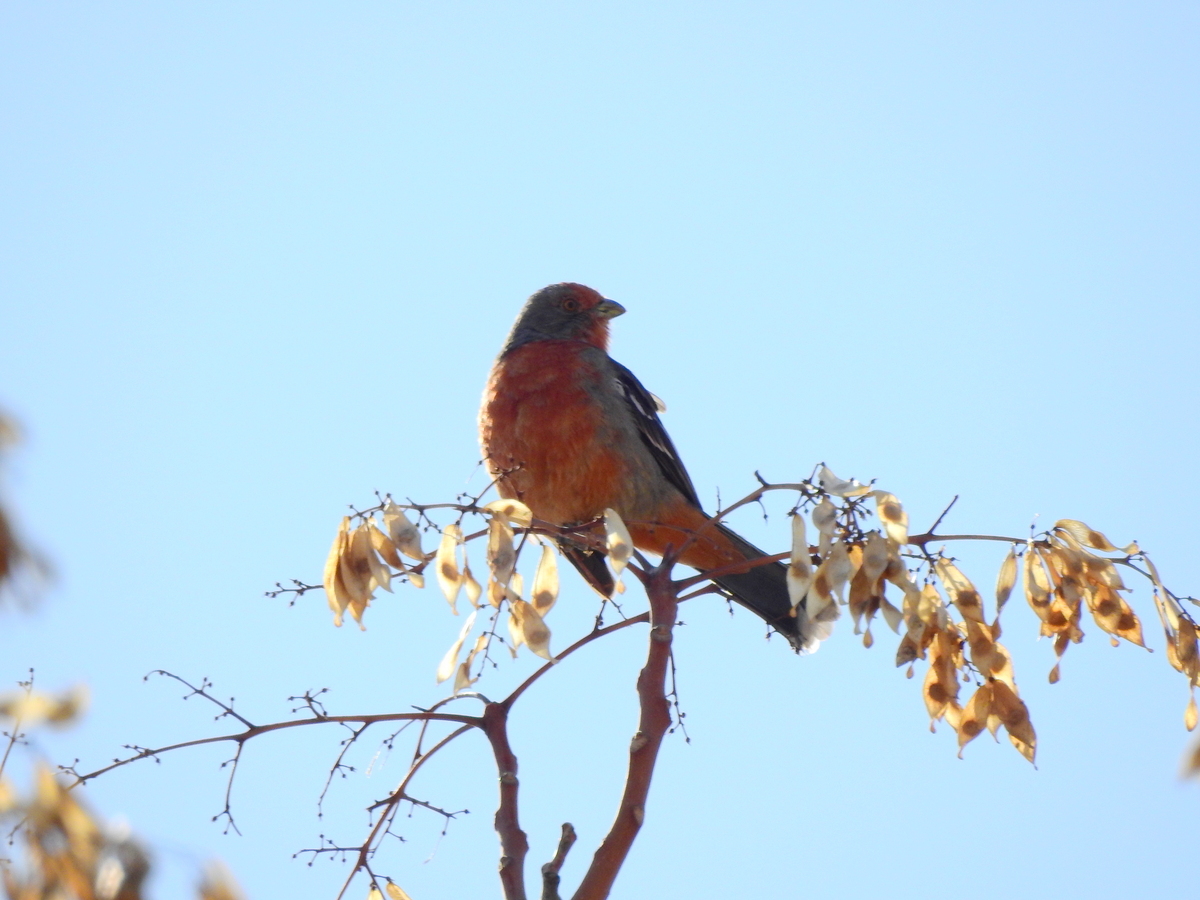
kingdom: Animalia
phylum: Chordata
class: Aves
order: Passeriformes
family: Cotingidae
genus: Phytotoma
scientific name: Phytotoma rutila
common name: White-tipped plantcutter
